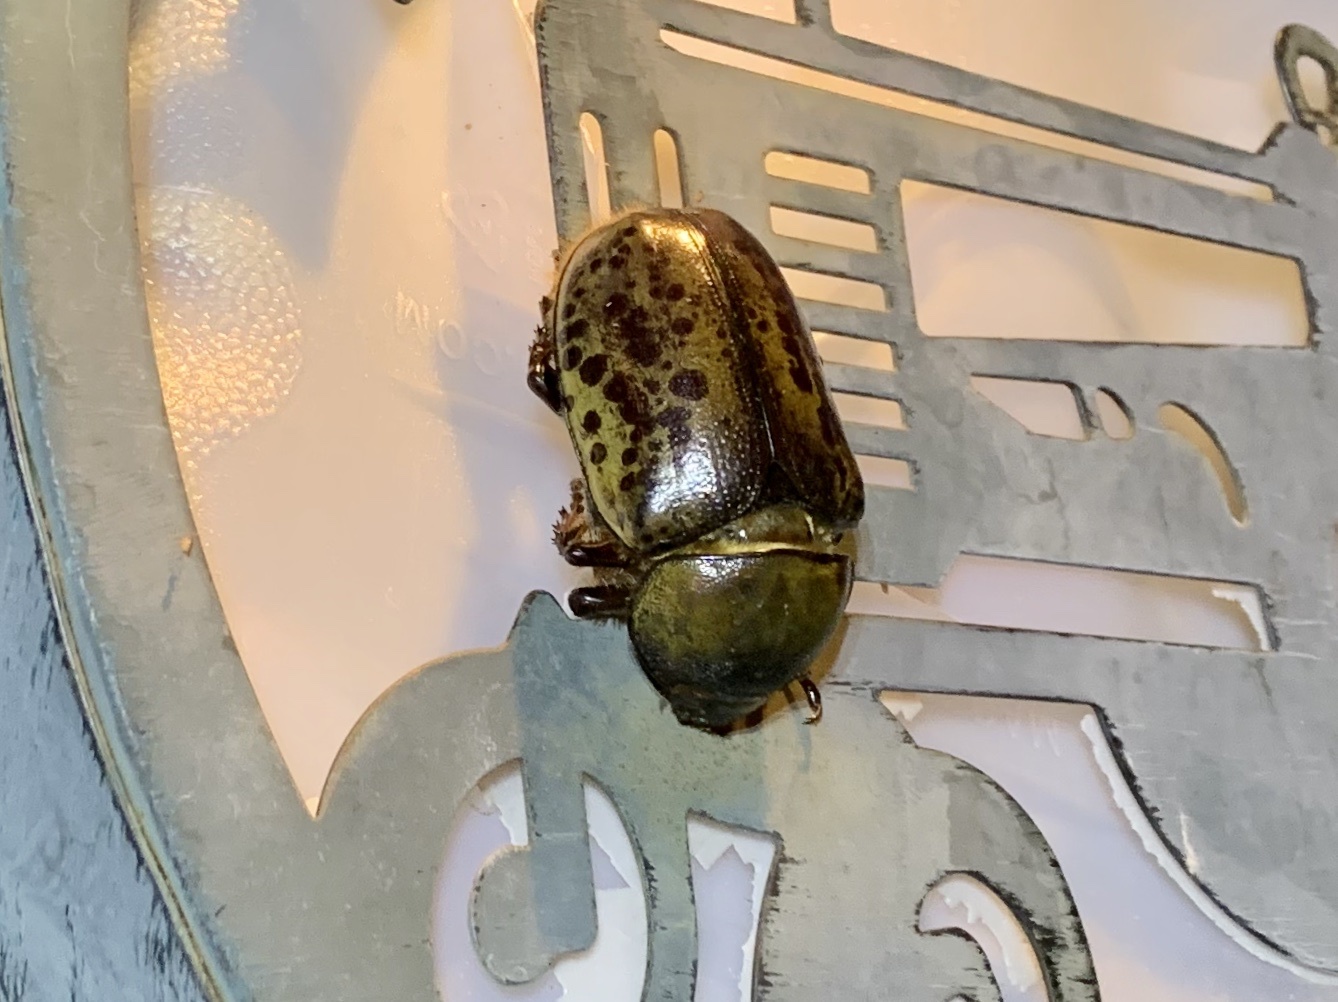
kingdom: Animalia
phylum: Arthropoda
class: Insecta
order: Coleoptera
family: Scarabaeidae
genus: Dynastes
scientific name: Dynastes tityus
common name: Eastern hercules beetle
